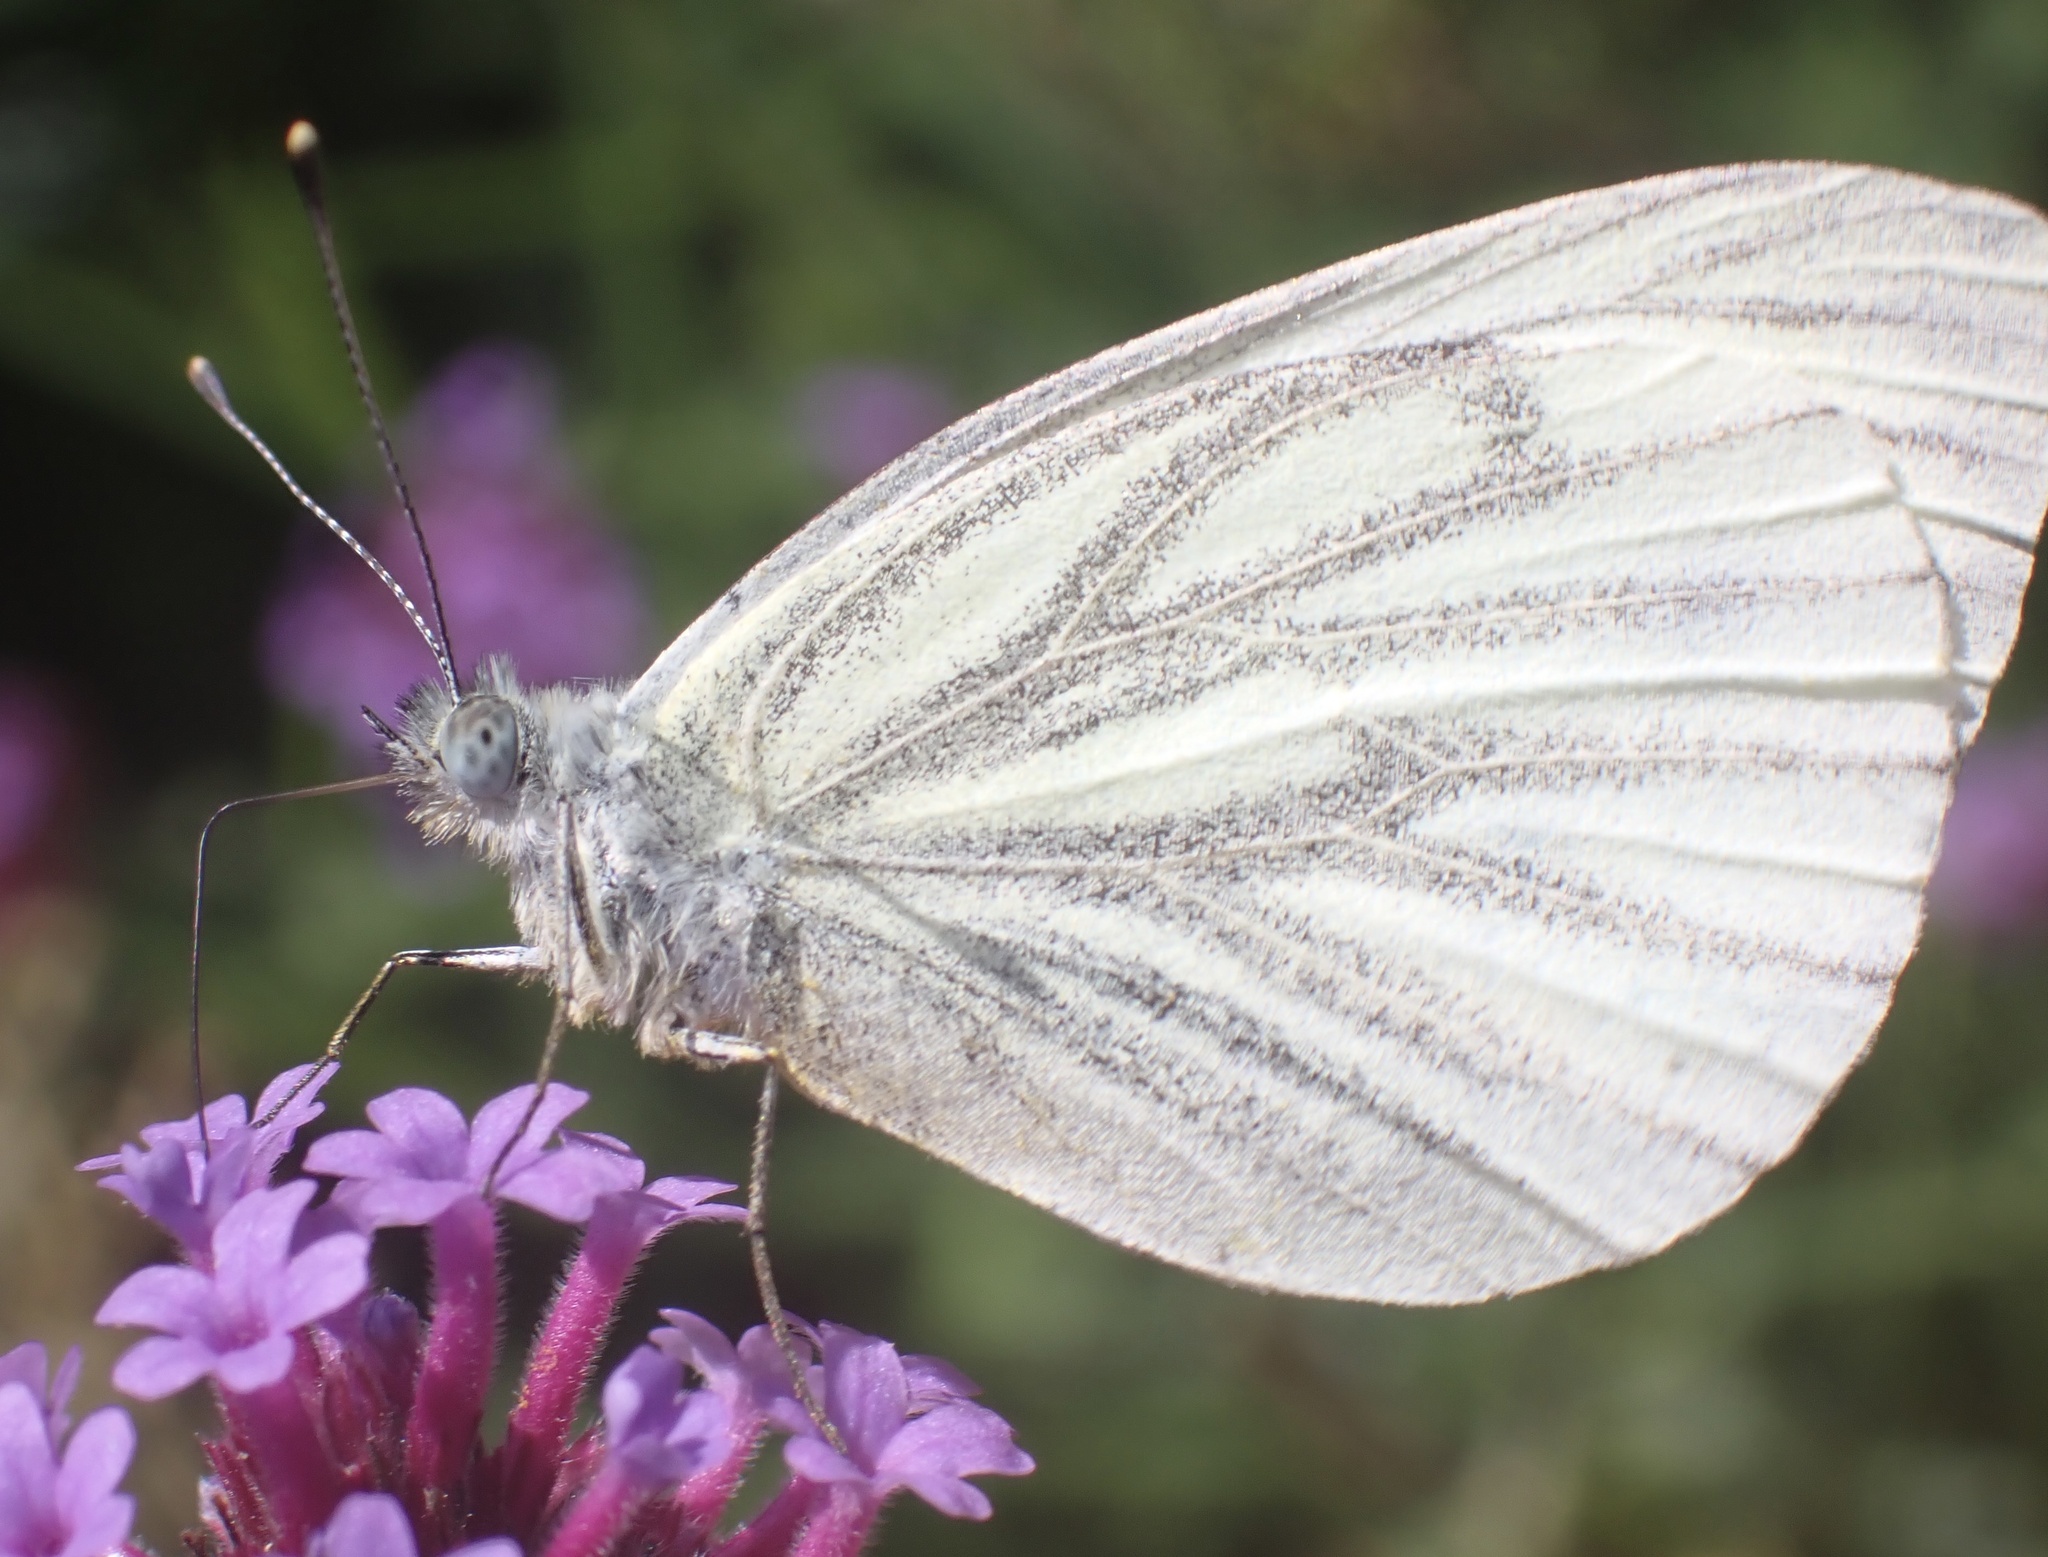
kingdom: Animalia
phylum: Arthropoda
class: Insecta
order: Lepidoptera
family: Pieridae
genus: Pieris
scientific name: Pieris napi
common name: Green-veined white
